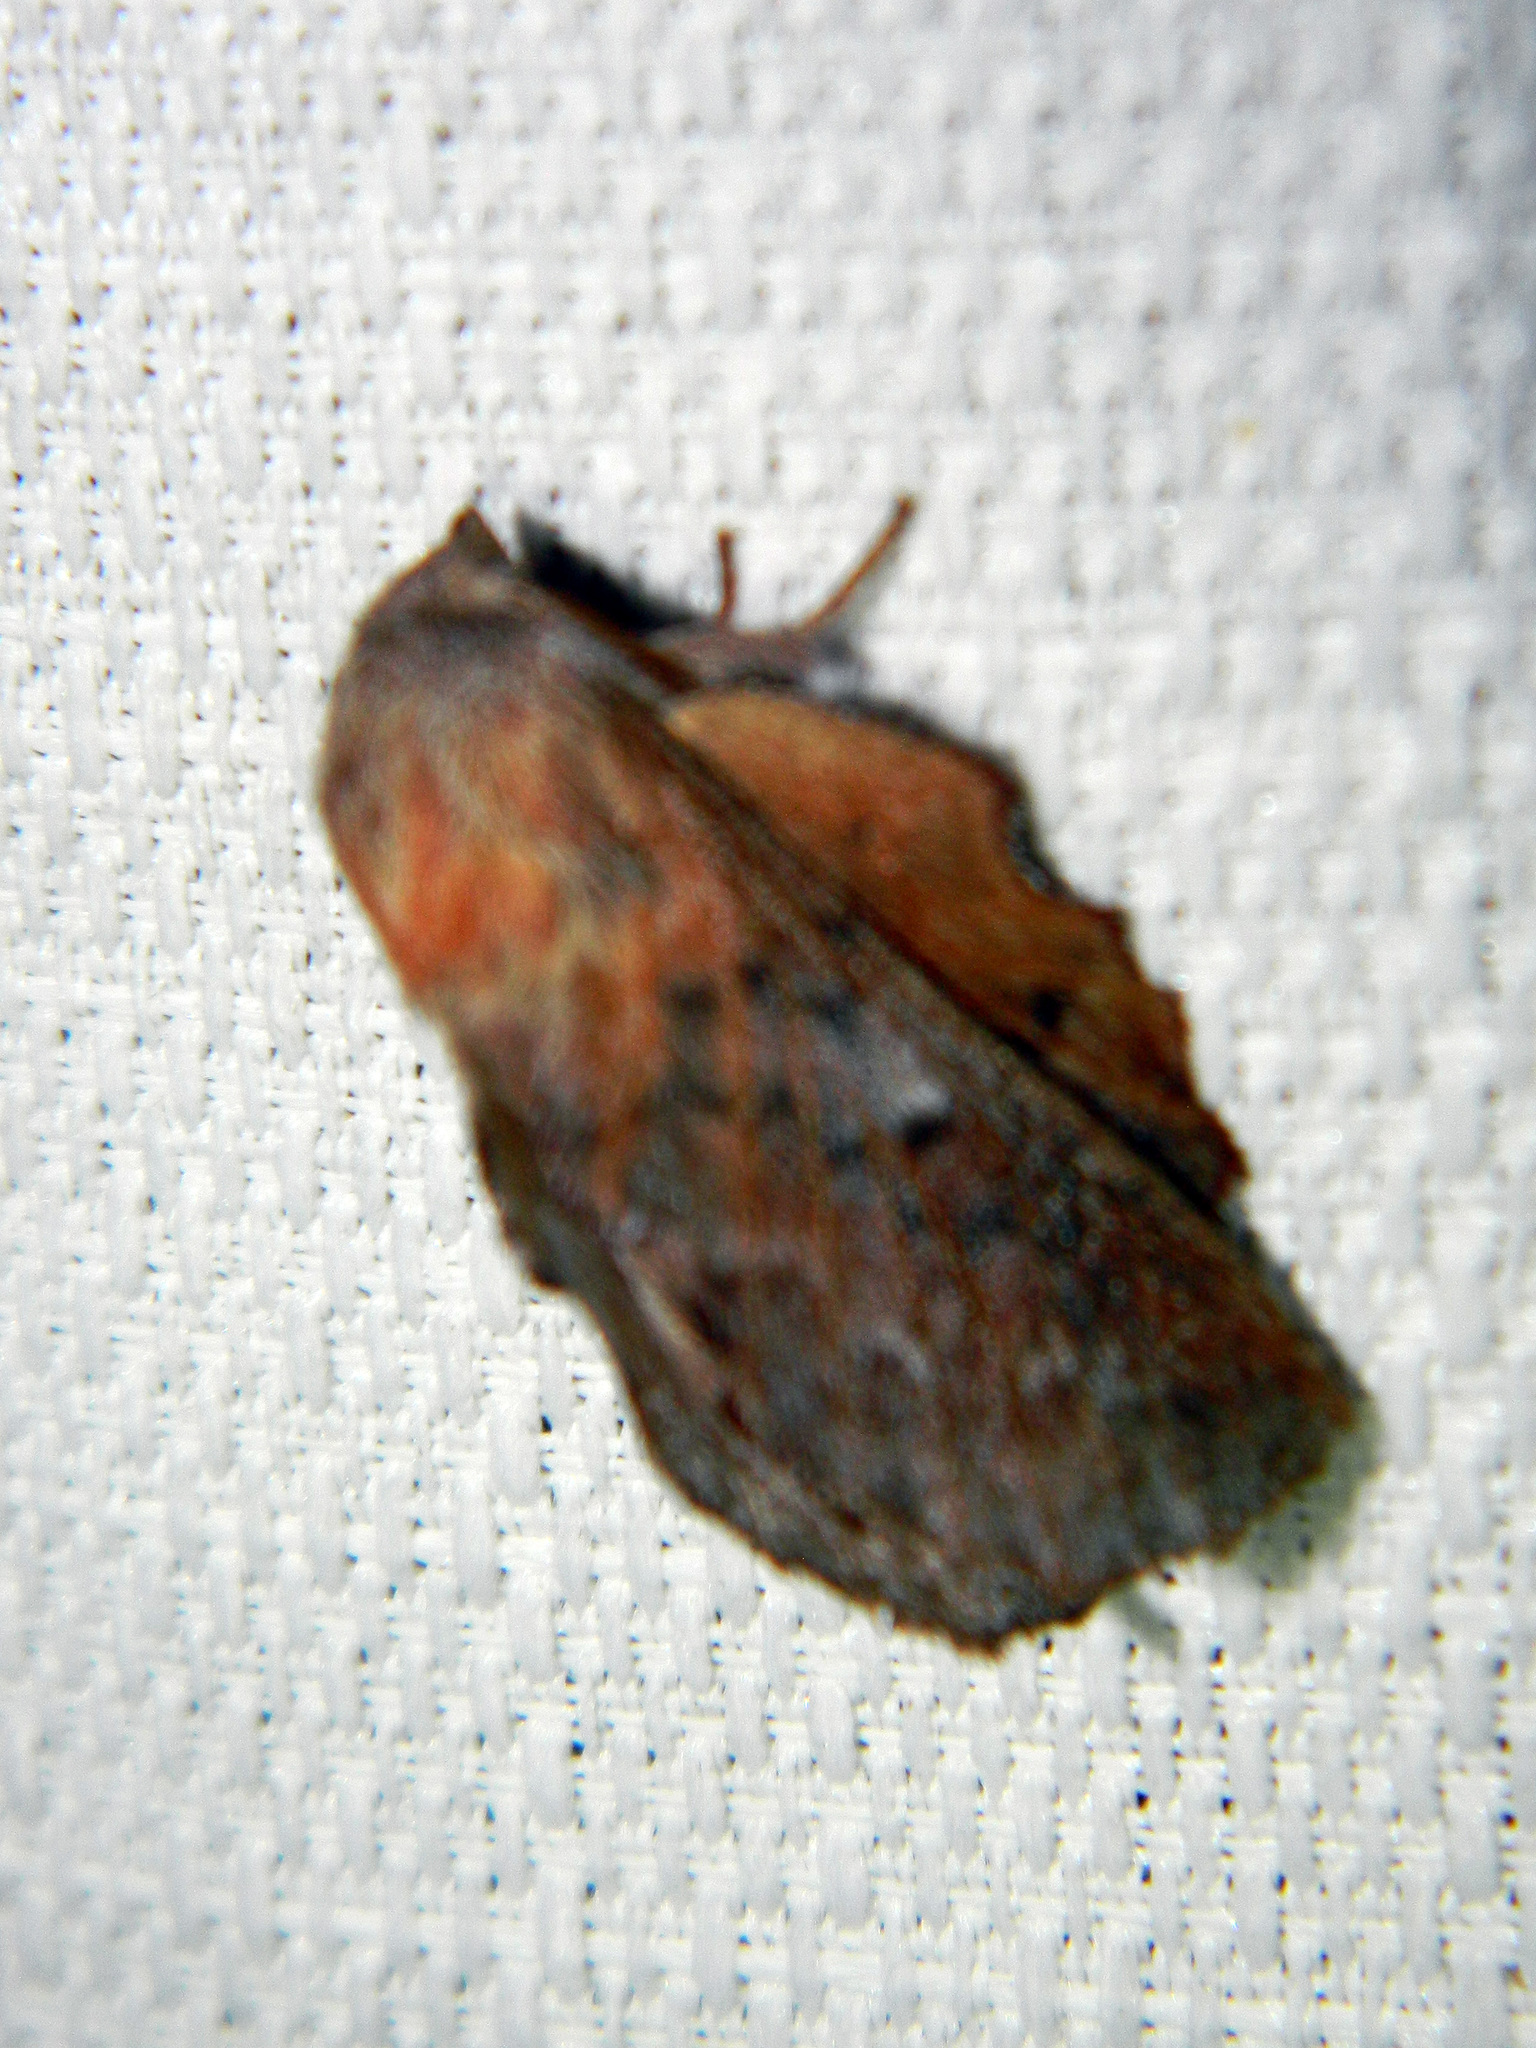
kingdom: Animalia
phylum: Arthropoda
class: Insecta
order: Lepidoptera
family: Lasiocampidae
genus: Phyllodesma
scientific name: Phyllodesma americana
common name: American lappet moth
